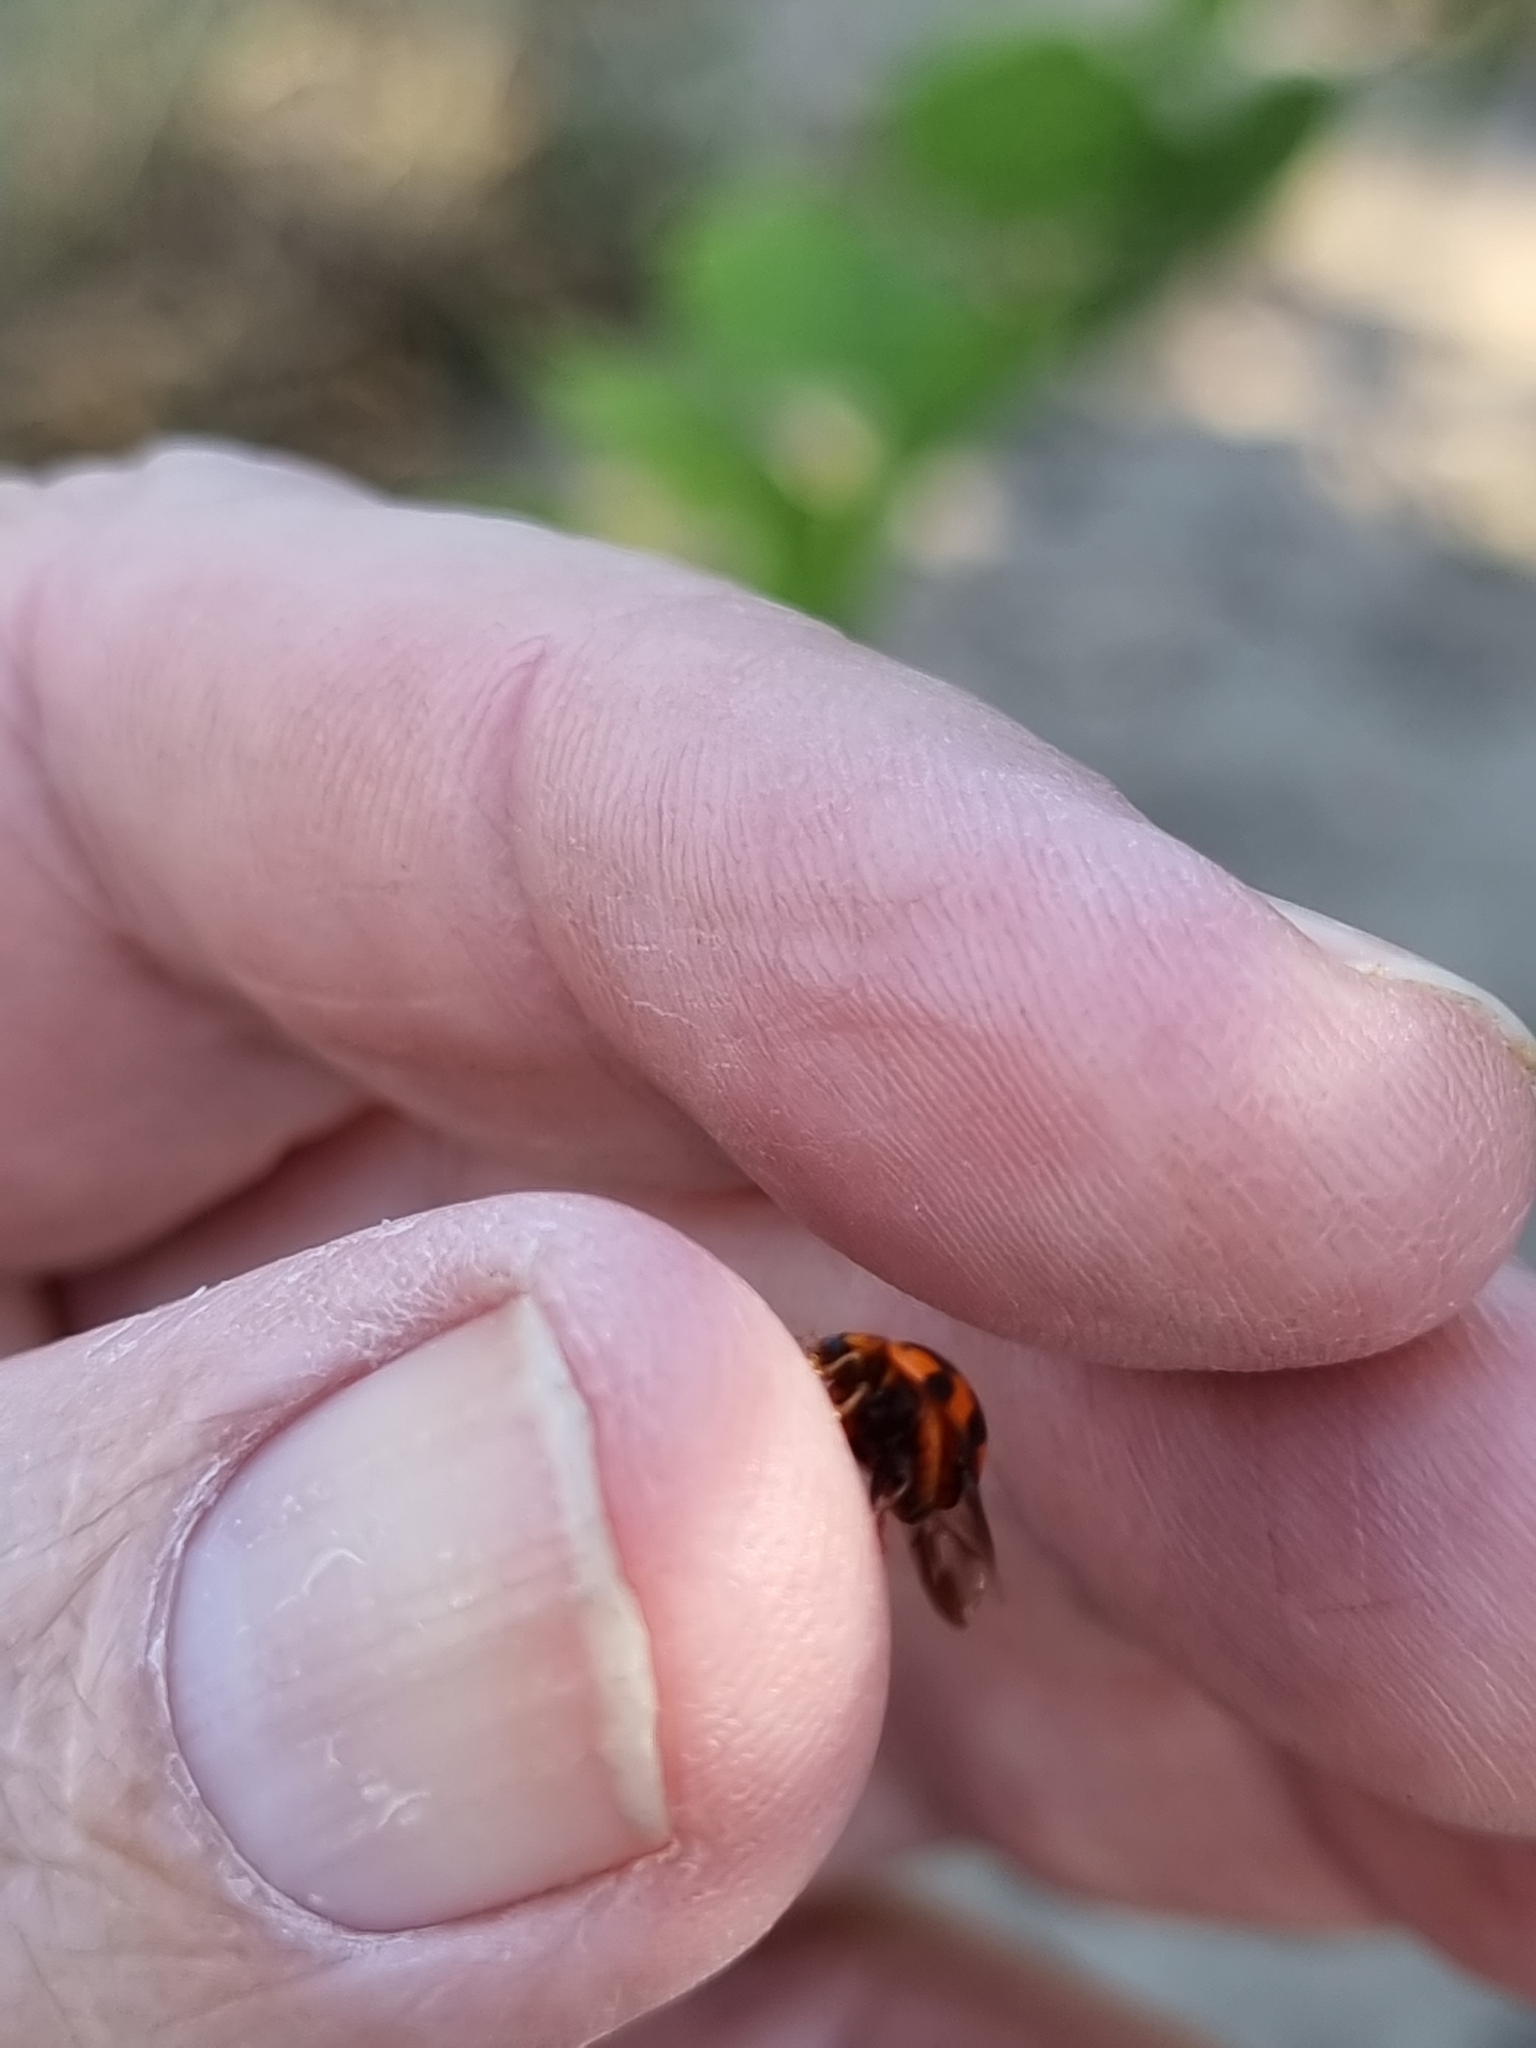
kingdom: Animalia
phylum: Arthropoda
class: Insecta
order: Coleoptera
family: Coccinellidae
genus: Coelophora
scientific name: Coelophora inaequalis
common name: Common australian lady beetle
